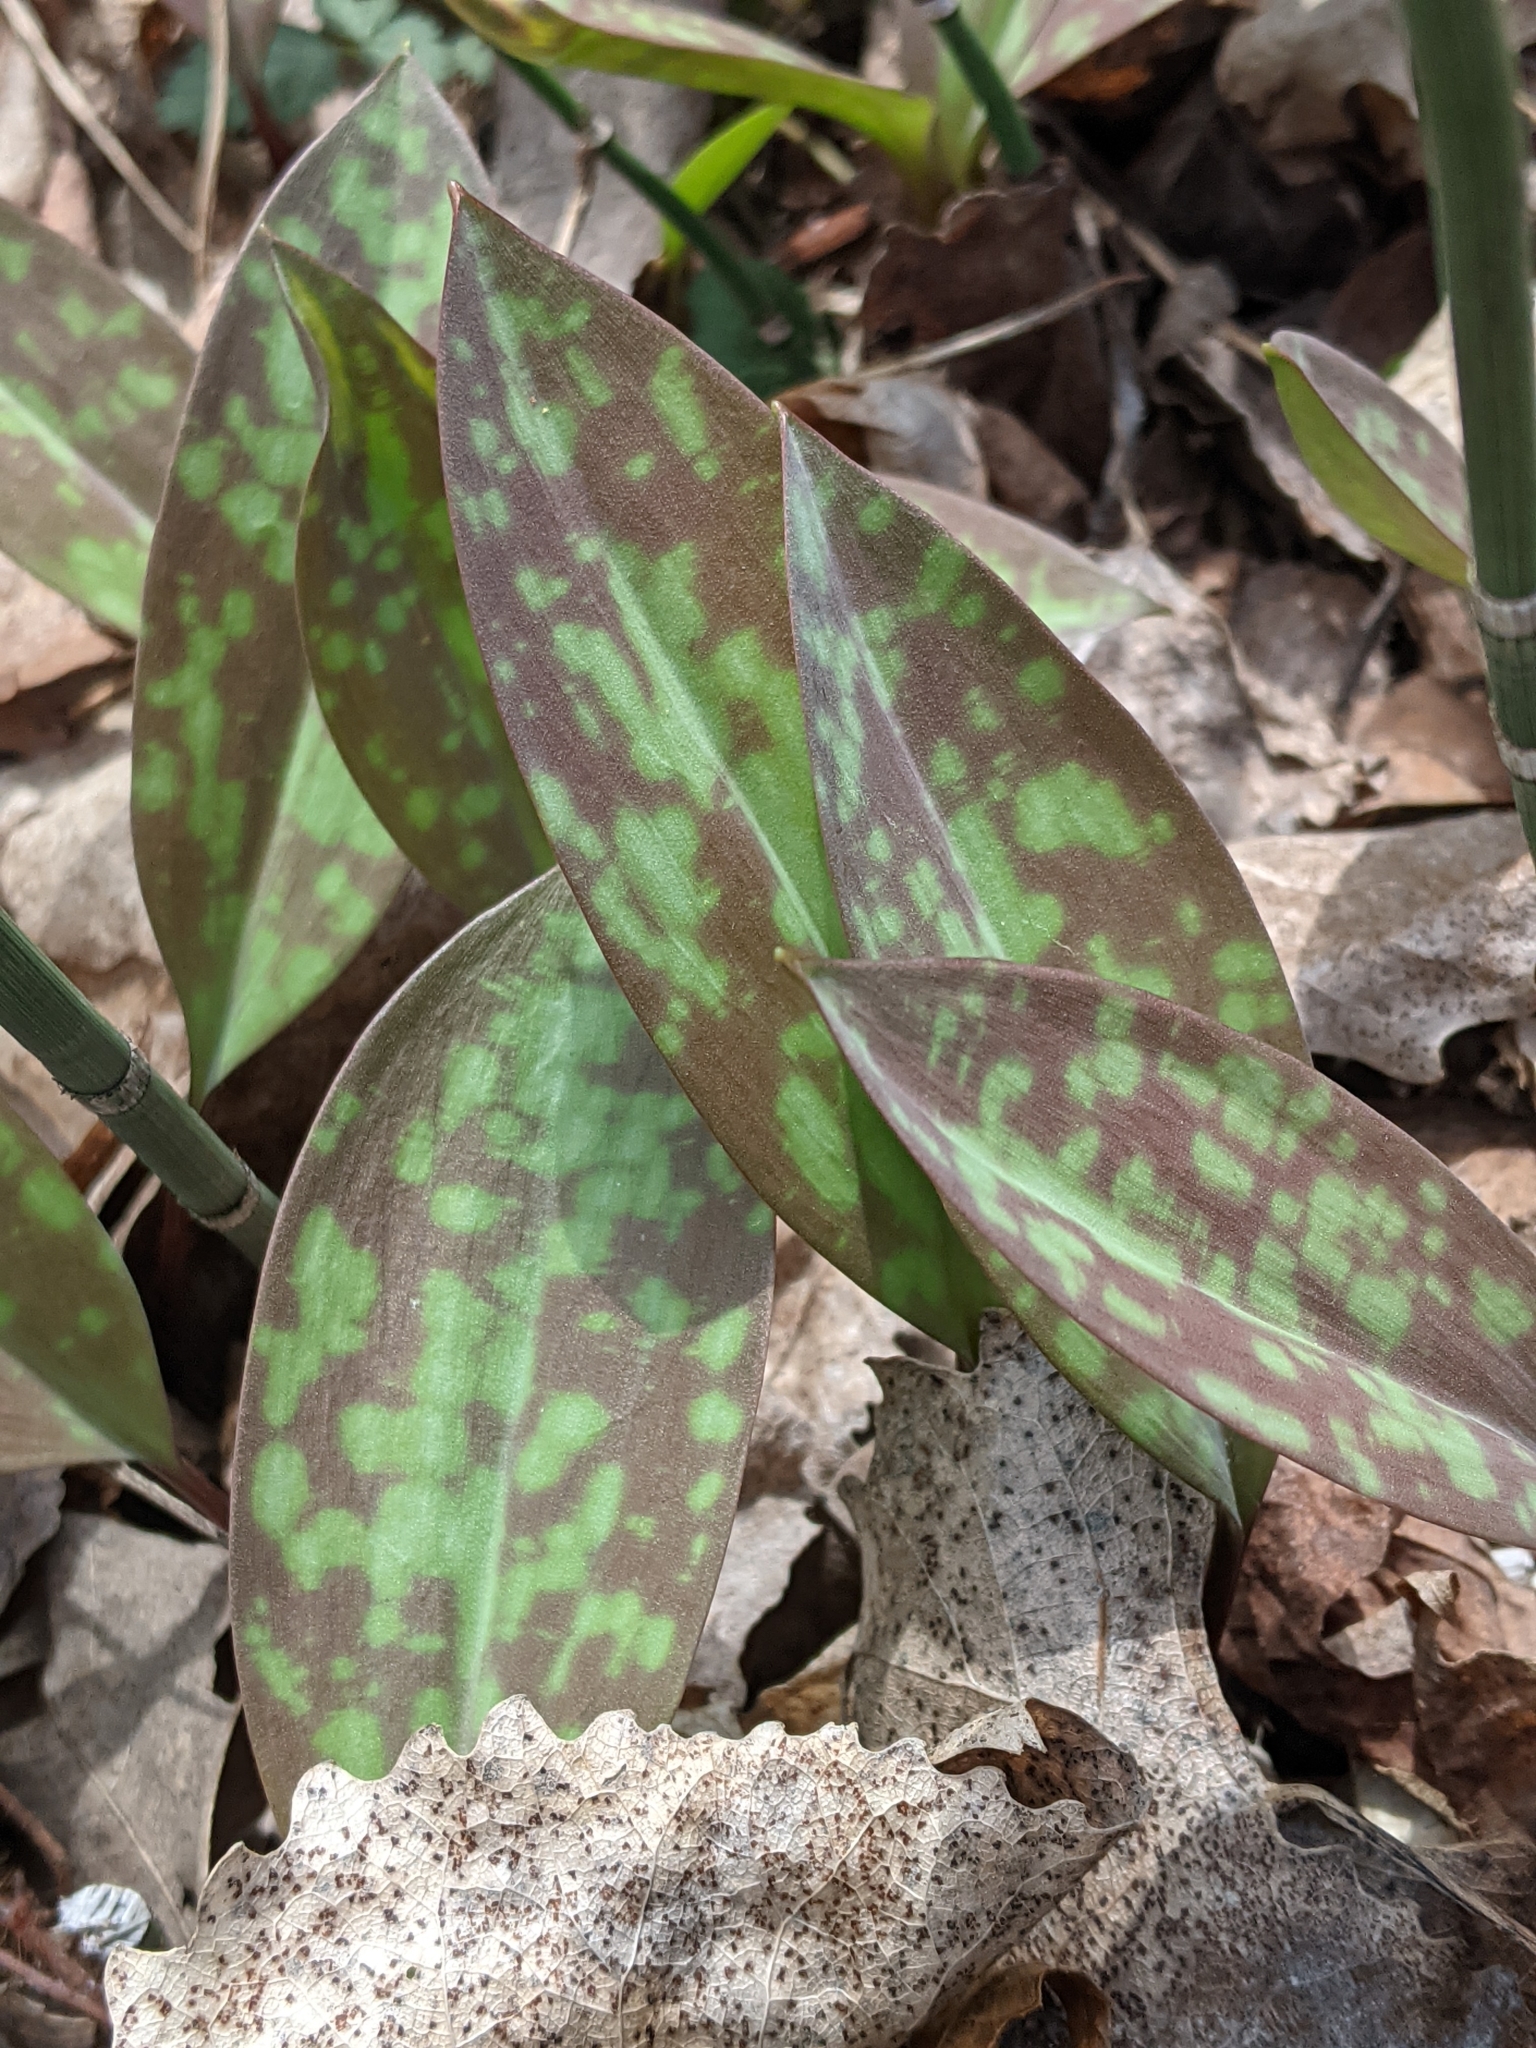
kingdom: Plantae
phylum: Tracheophyta
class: Liliopsida
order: Liliales
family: Liliaceae
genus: Erythronium
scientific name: Erythronium americanum
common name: Yellow adder's-tongue
